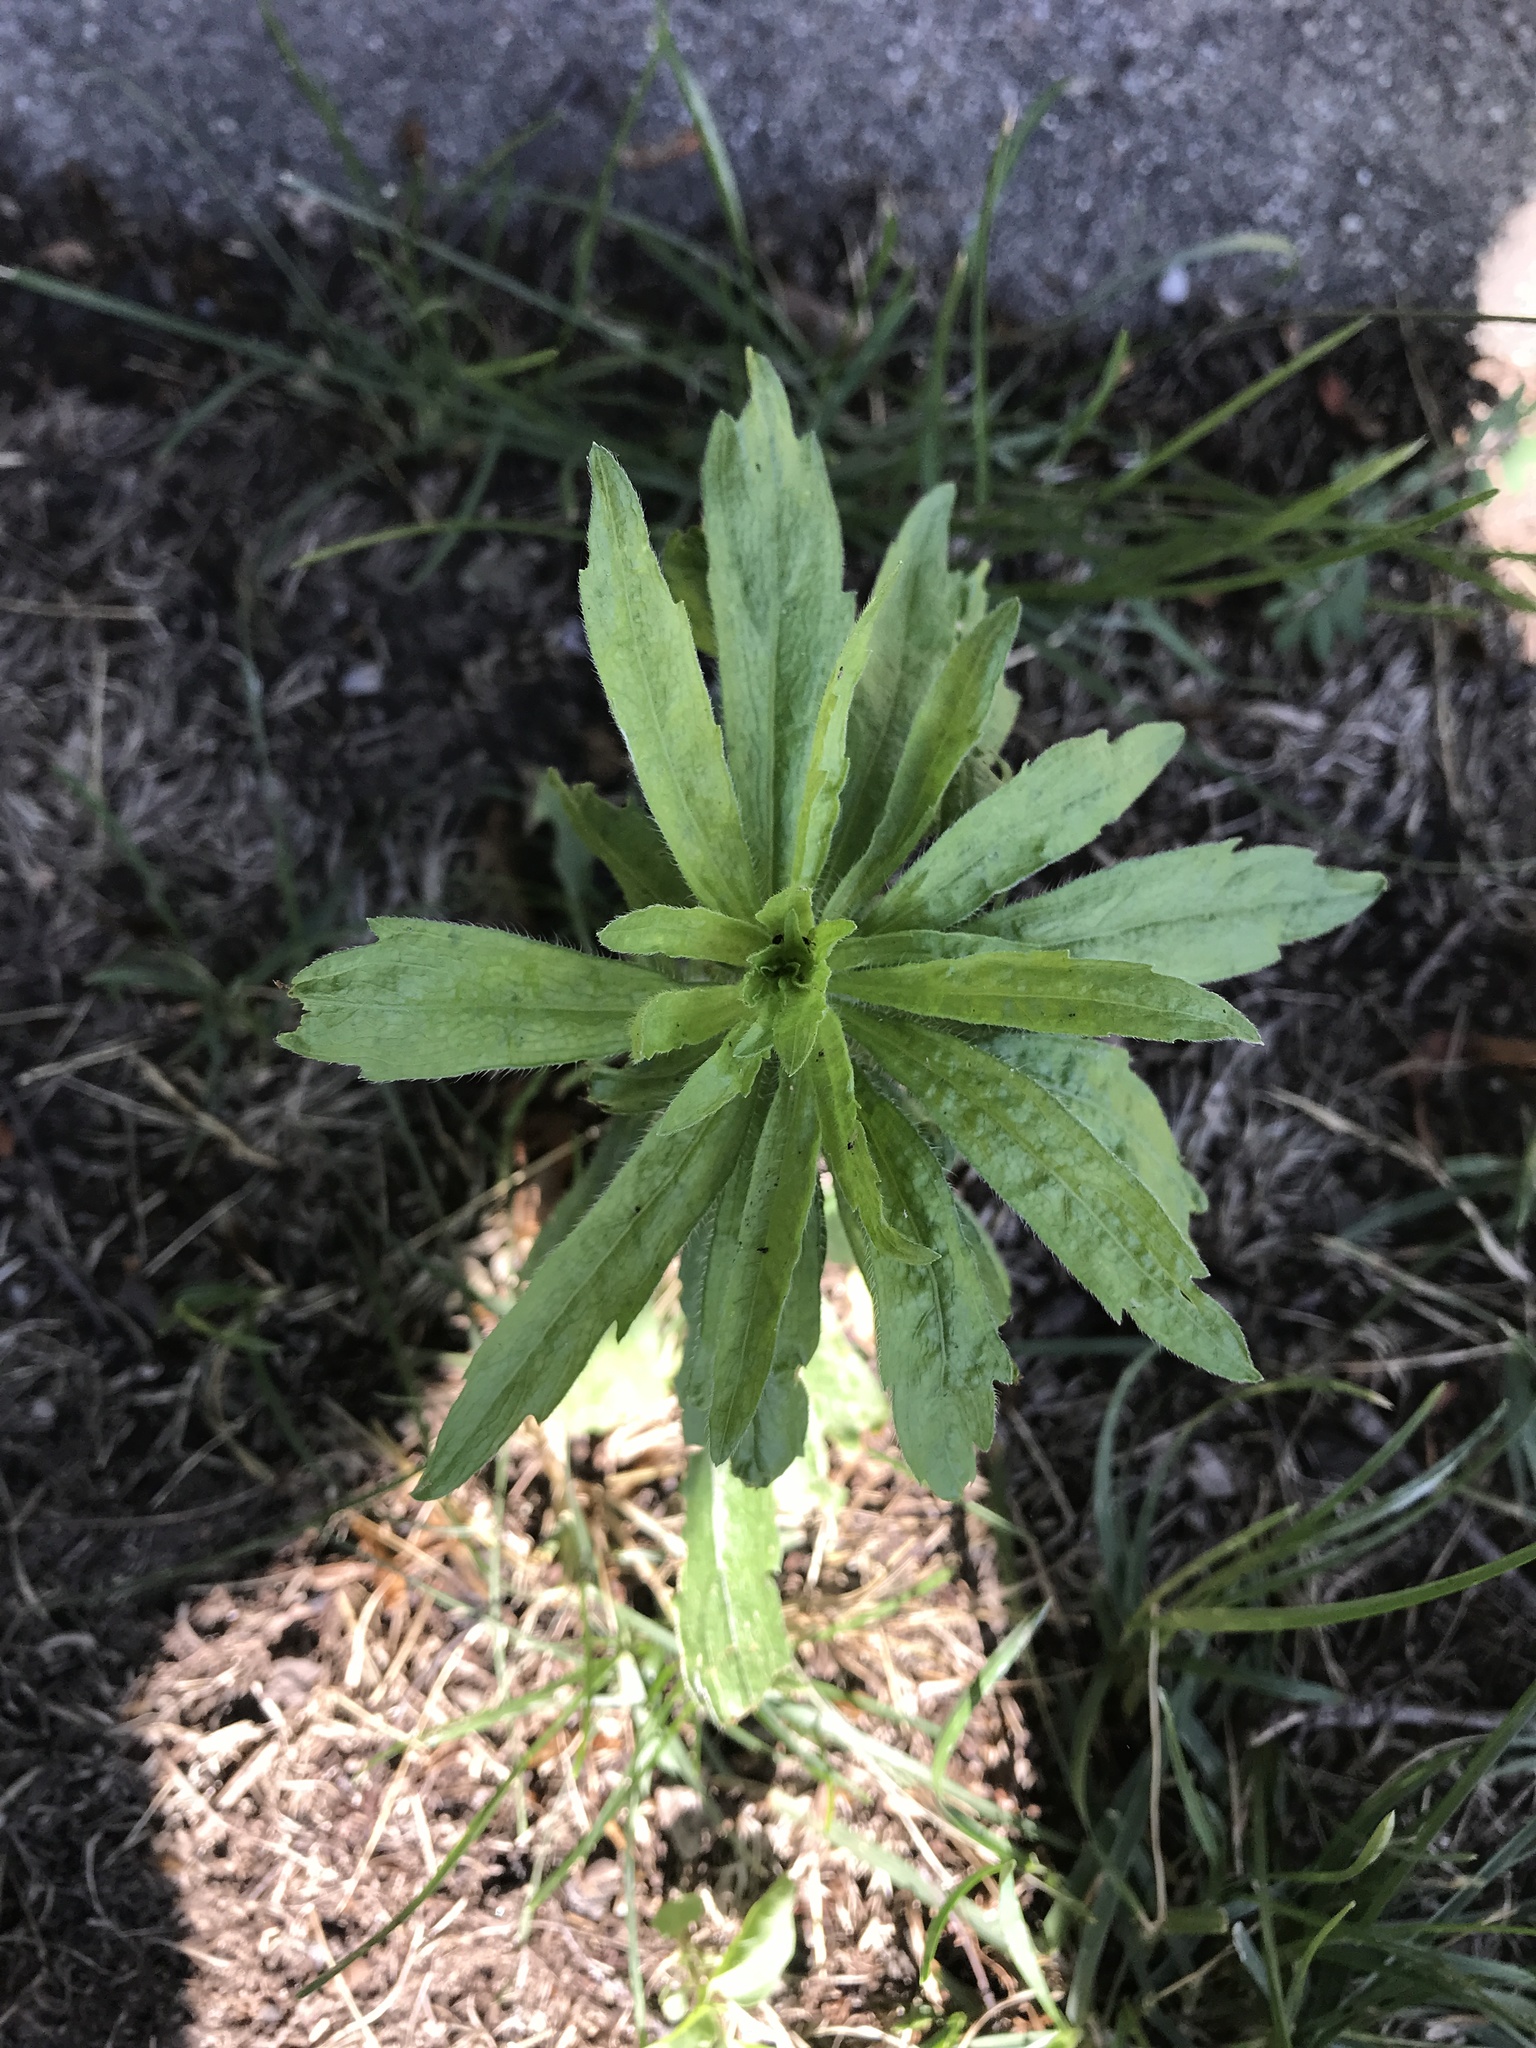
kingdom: Plantae
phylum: Tracheophyta
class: Magnoliopsida
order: Asterales
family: Asteraceae
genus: Erigeron
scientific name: Erigeron canadensis
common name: Canadian fleabane
